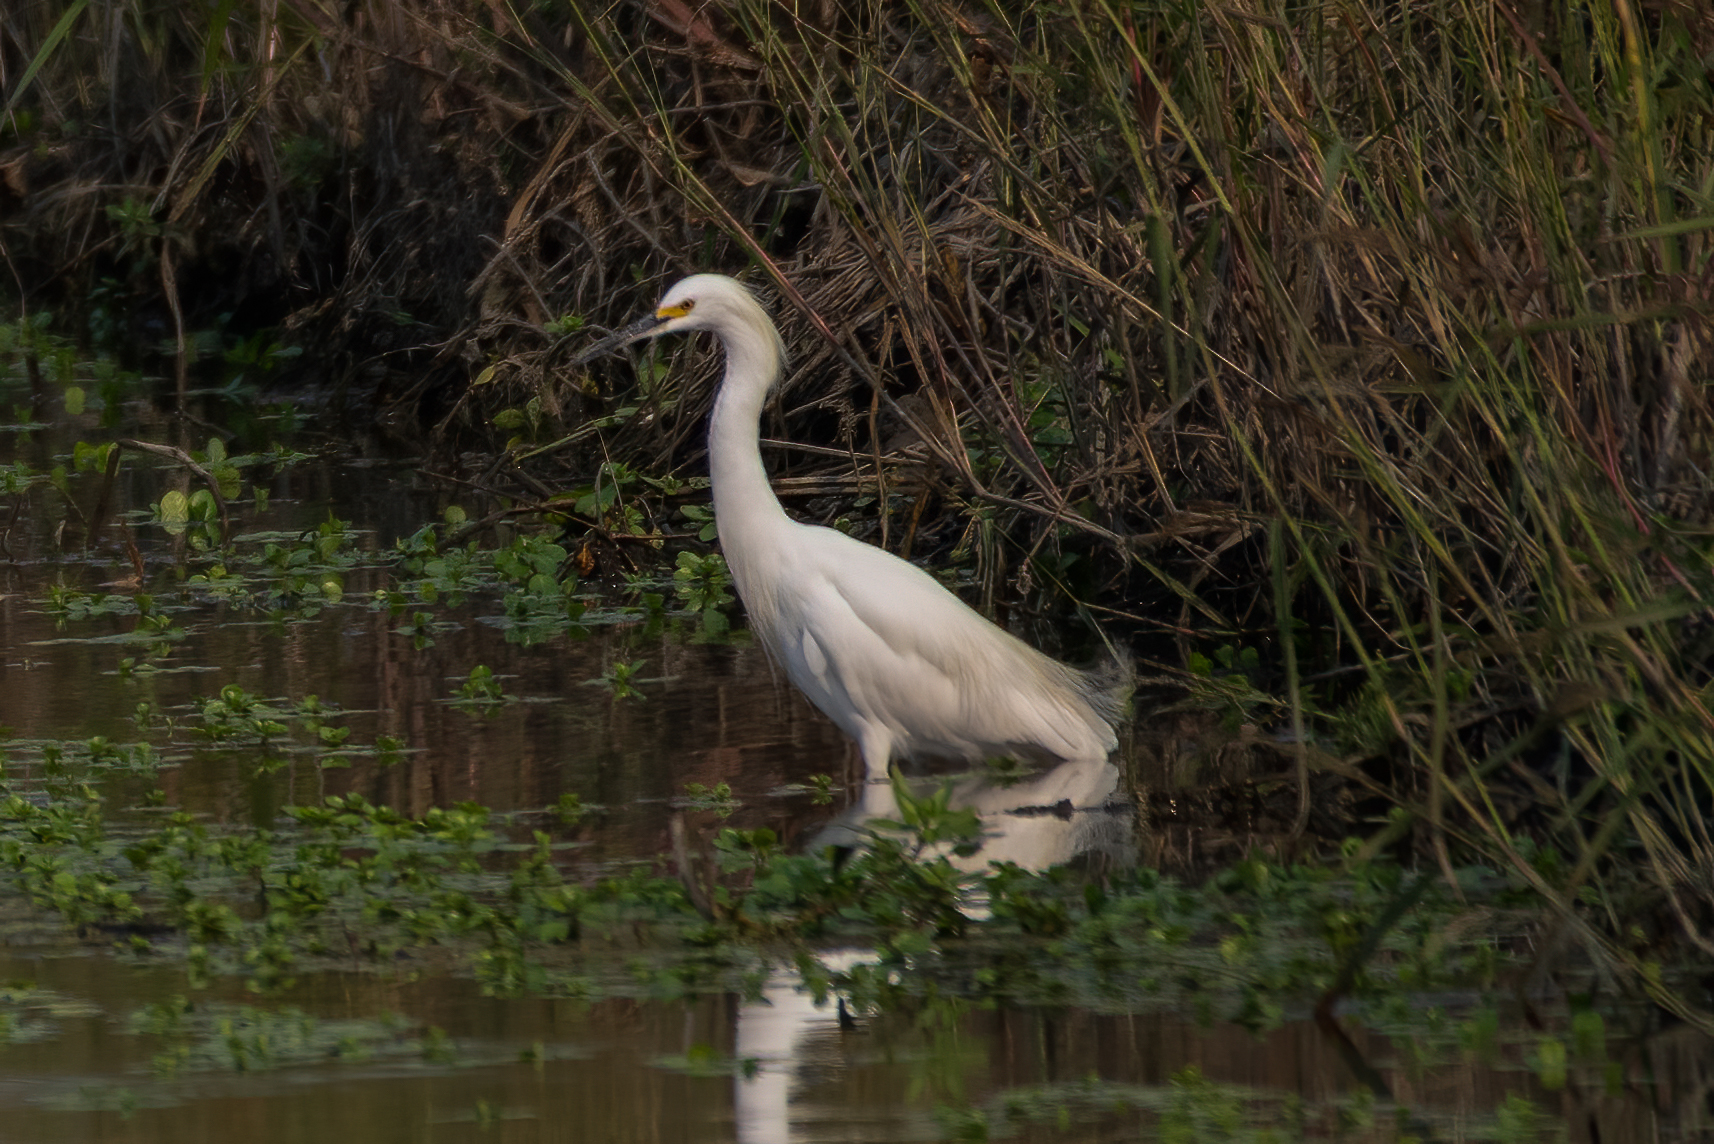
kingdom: Animalia
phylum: Chordata
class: Aves
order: Pelecaniformes
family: Ardeidae
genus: Egretta
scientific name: Egretta thula
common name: Snowy egret
